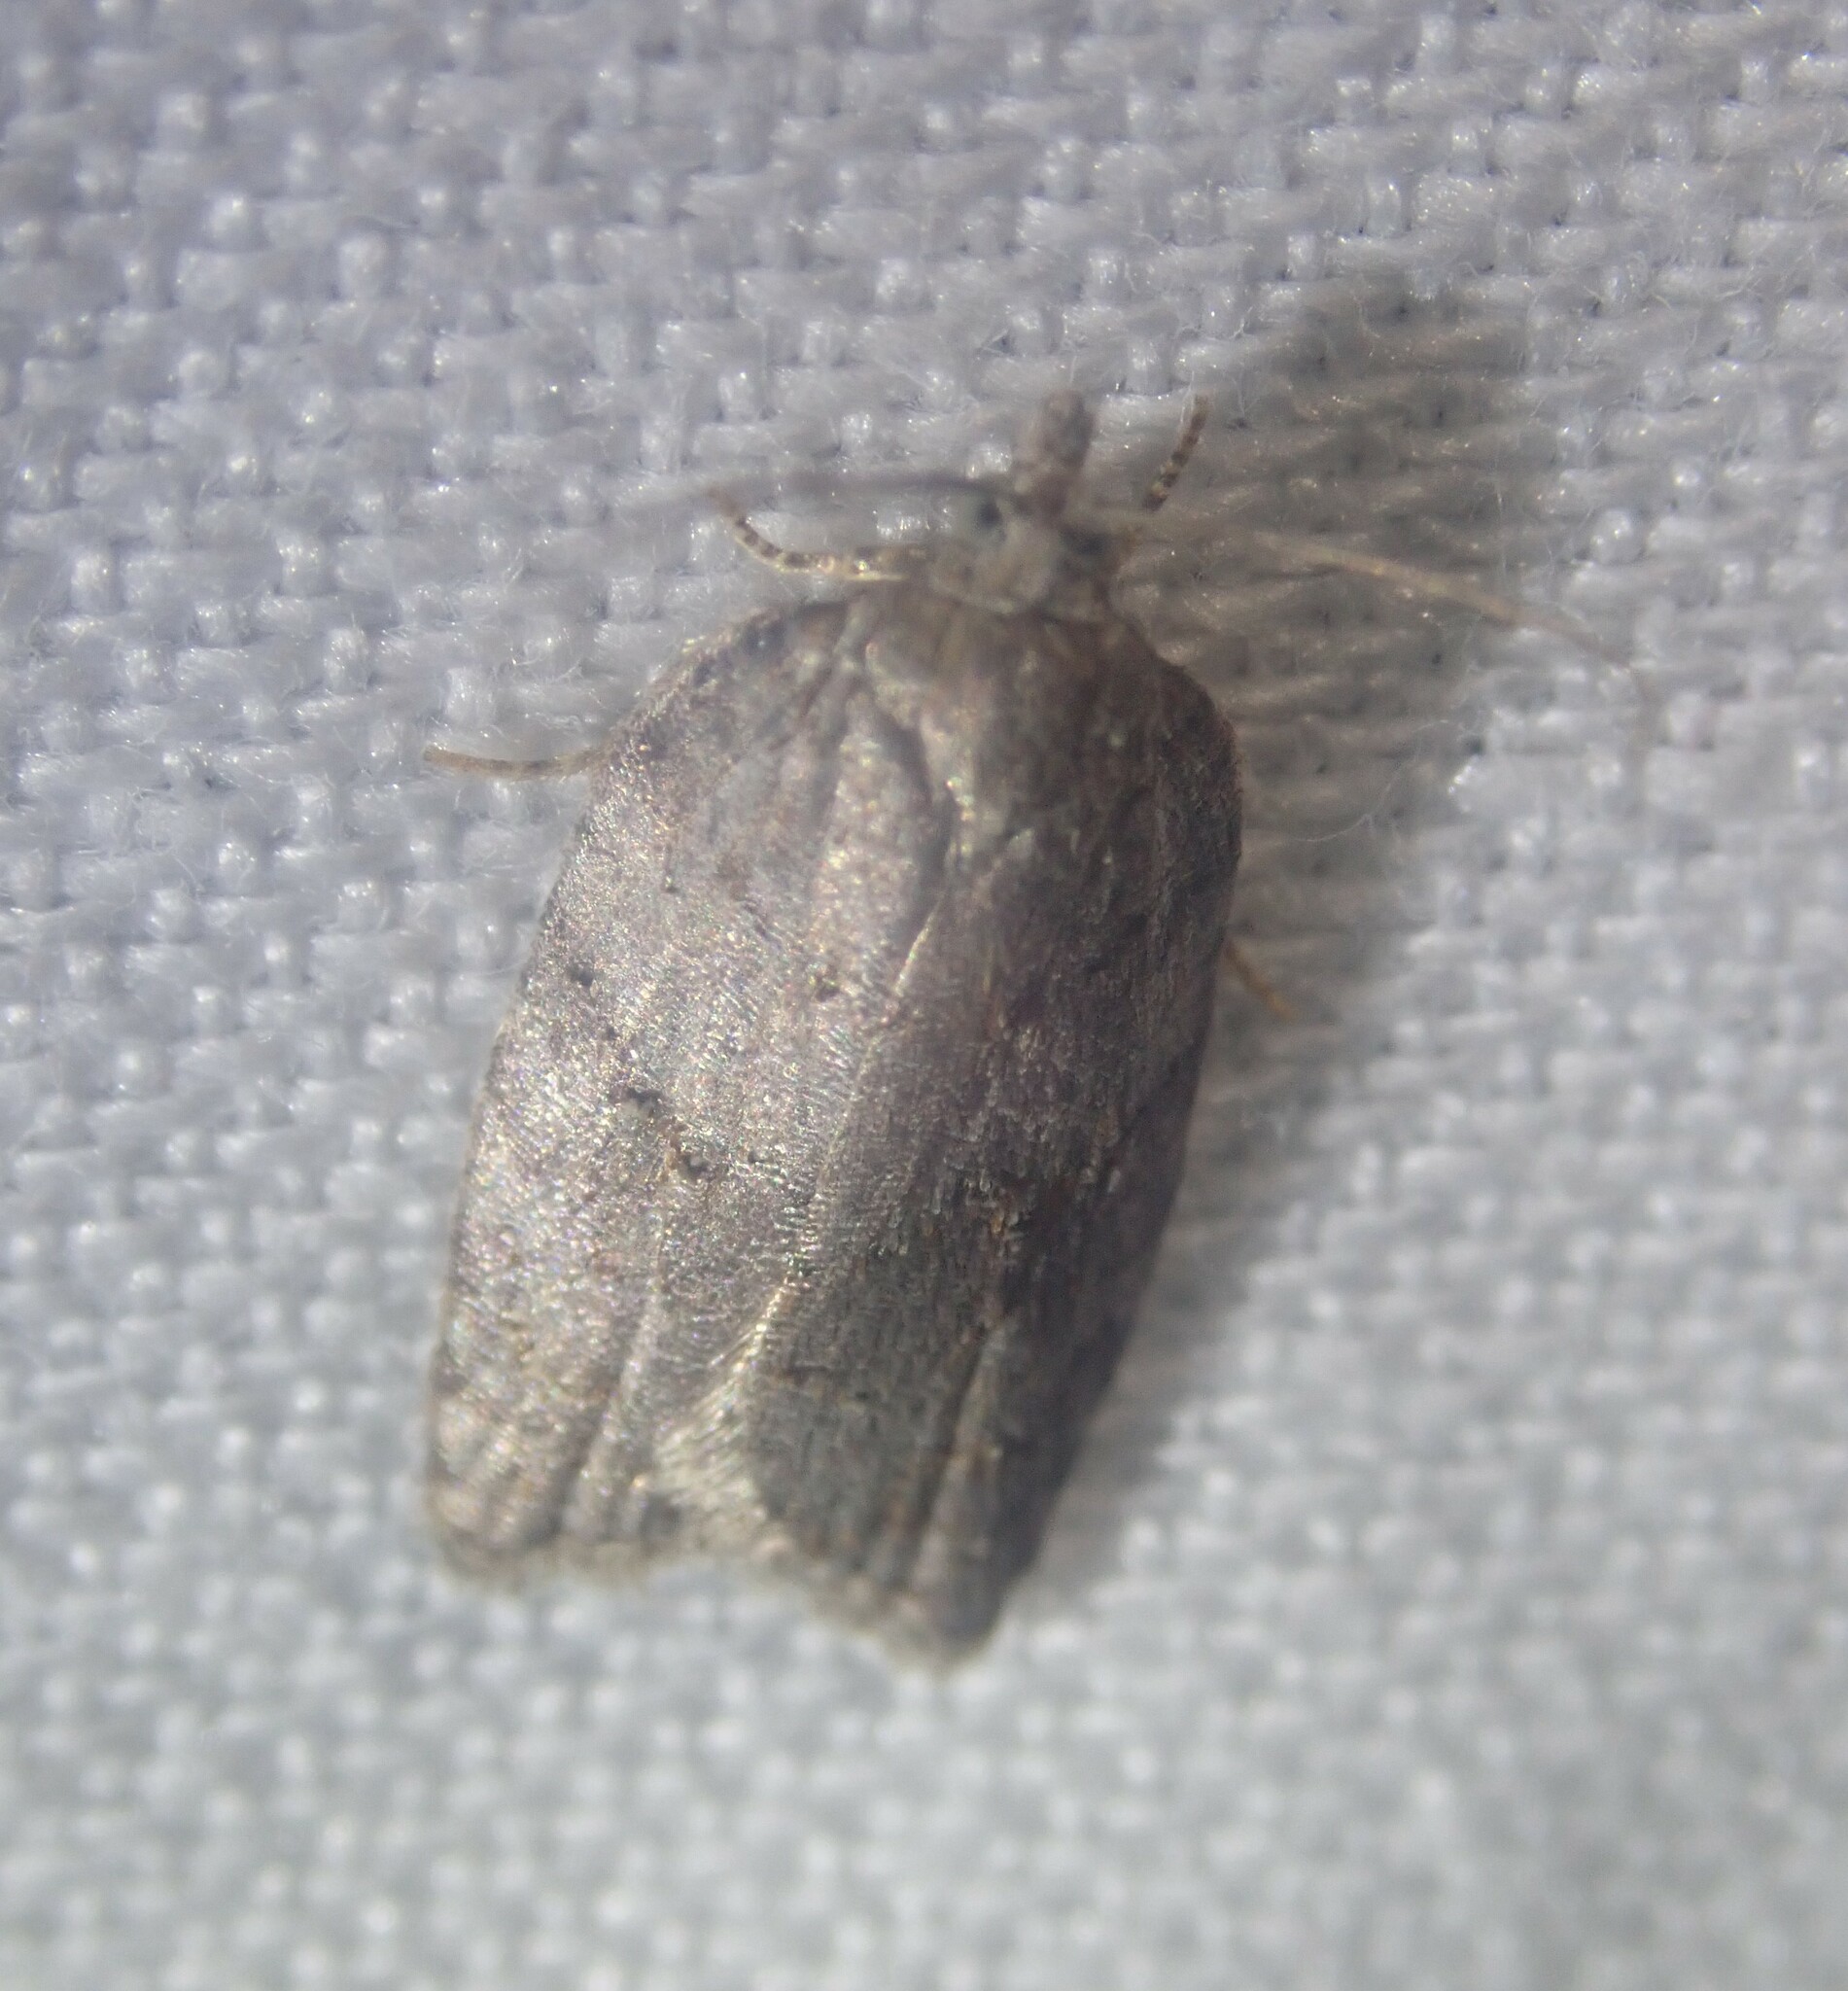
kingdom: Animalia
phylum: Arthropoda
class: Insecta
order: Lepidoptera
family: Tortricidae
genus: Acleris
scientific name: Acleris sparsana
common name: Ashy button
